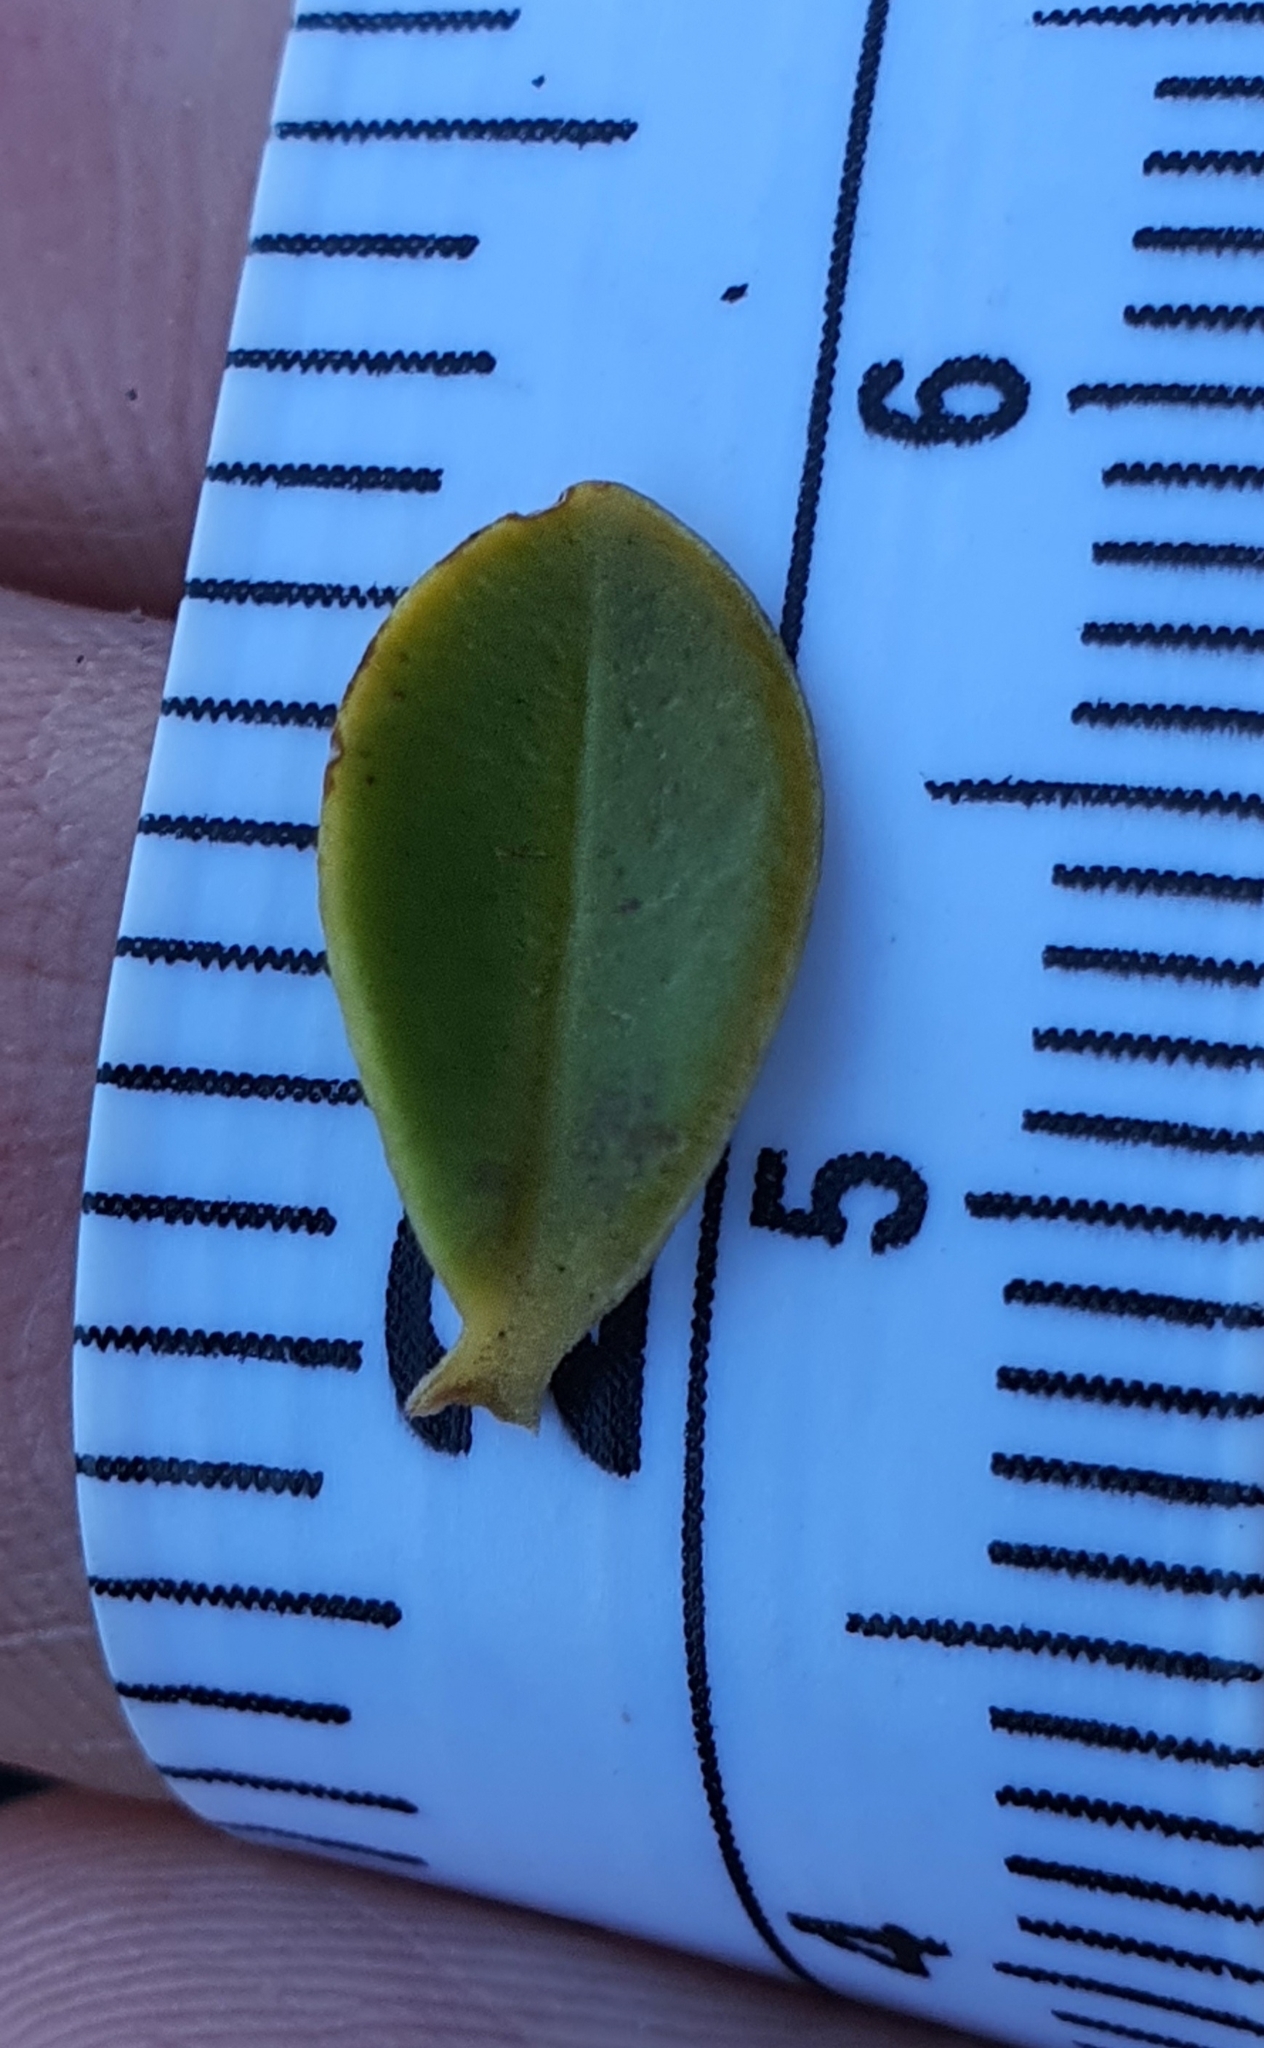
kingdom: Plantae
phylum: Tracheophyta
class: Magnoliopsida
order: Lamiales
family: Plantaginaceae
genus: Veronica
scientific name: Veronica canterburiensis
